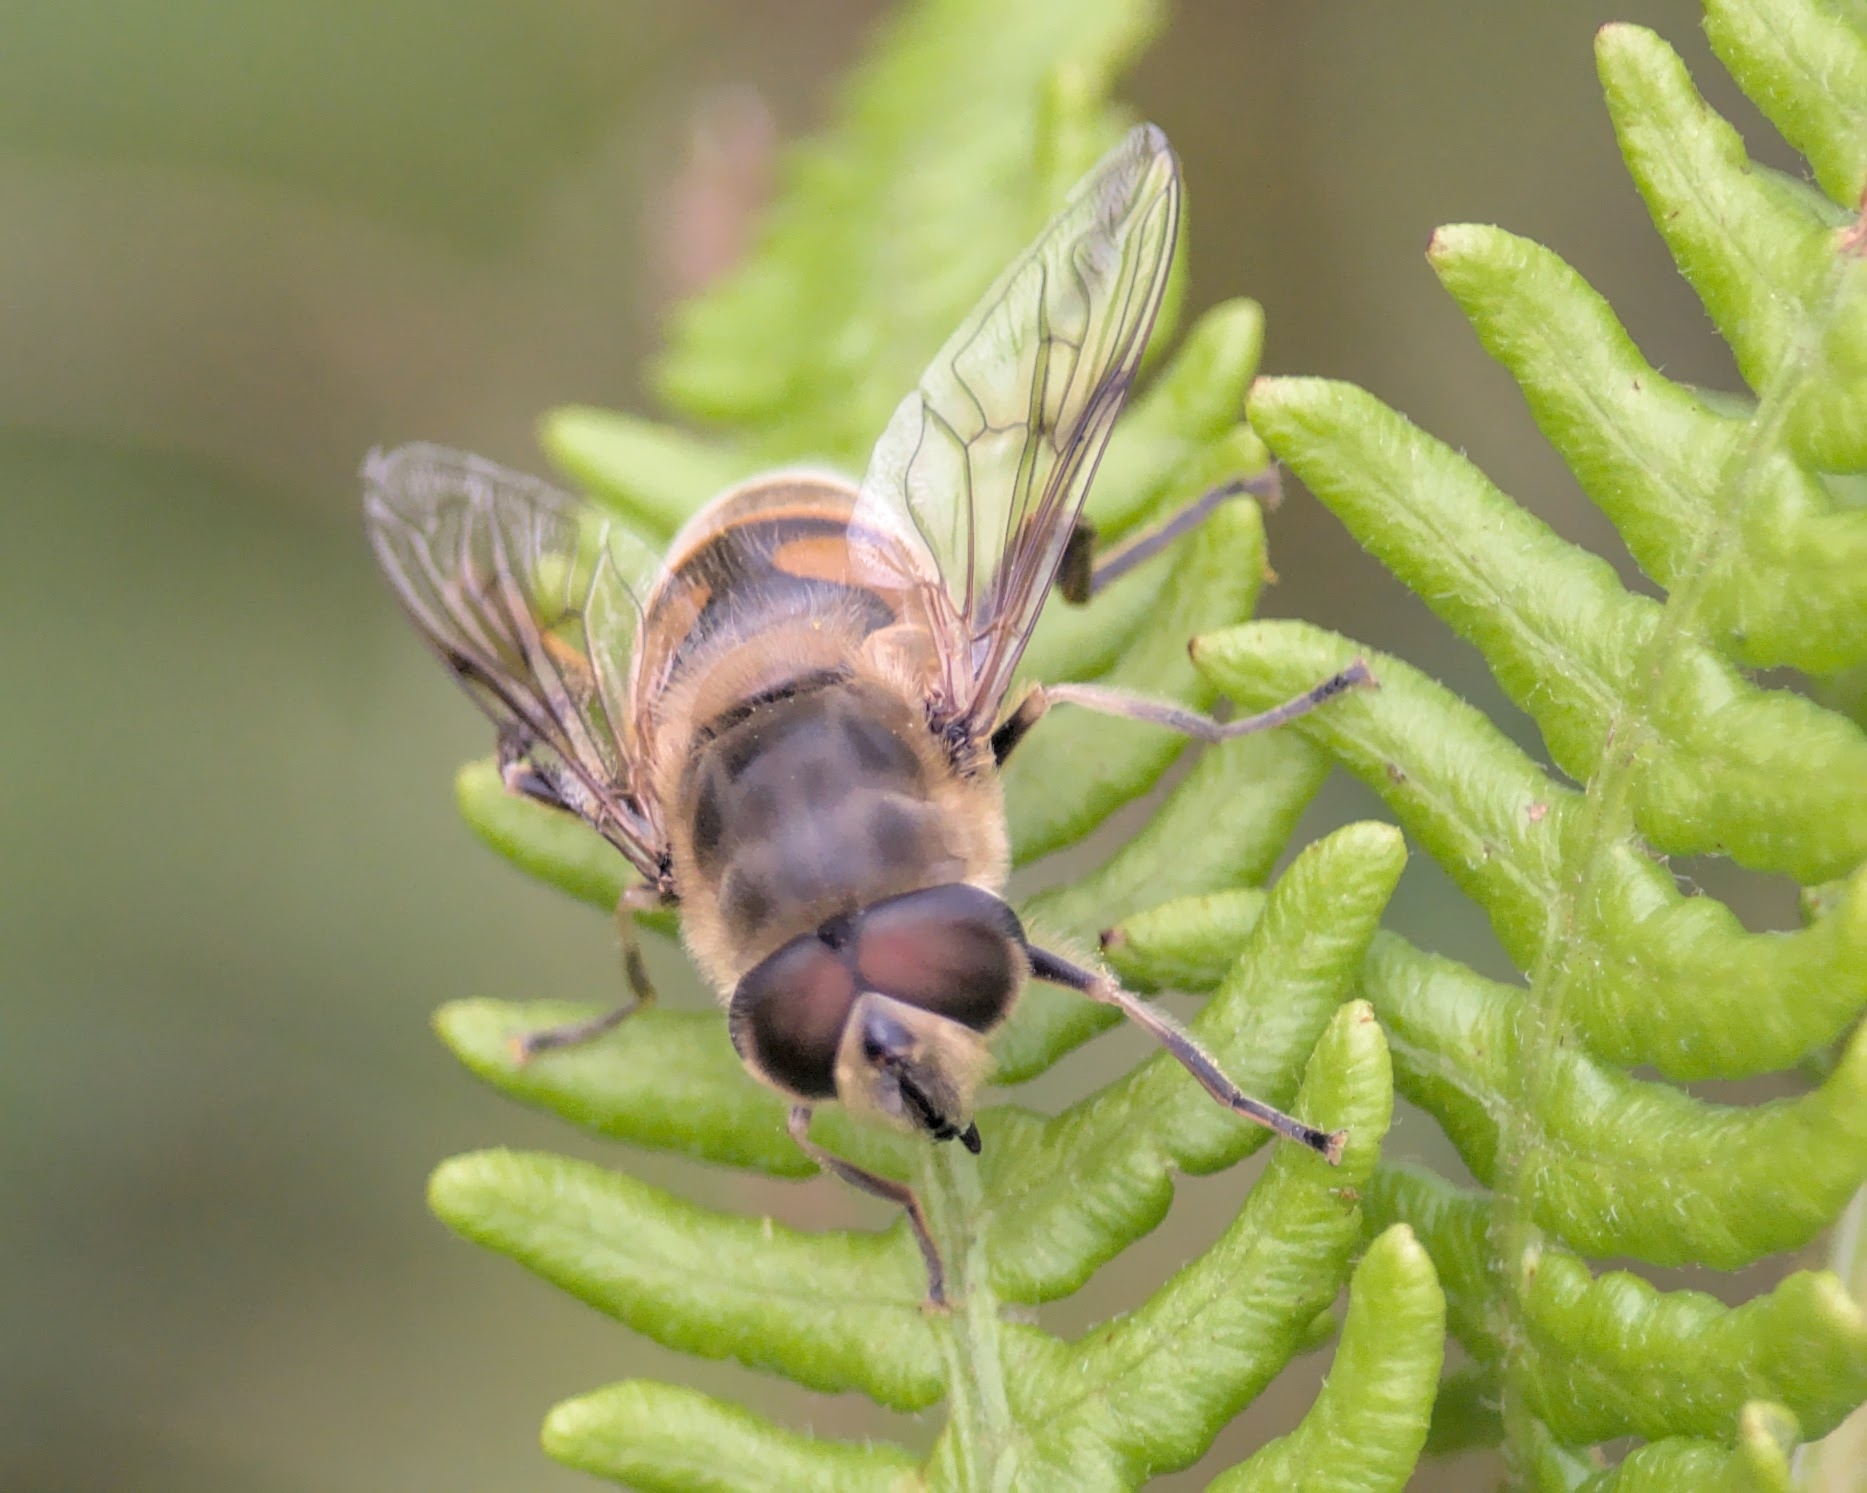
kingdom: Animalia
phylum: Arthropoda
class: Insecta
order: Diptera
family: Syrphidae
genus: Eristalis
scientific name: Eristalis tenax
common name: Drone fly
